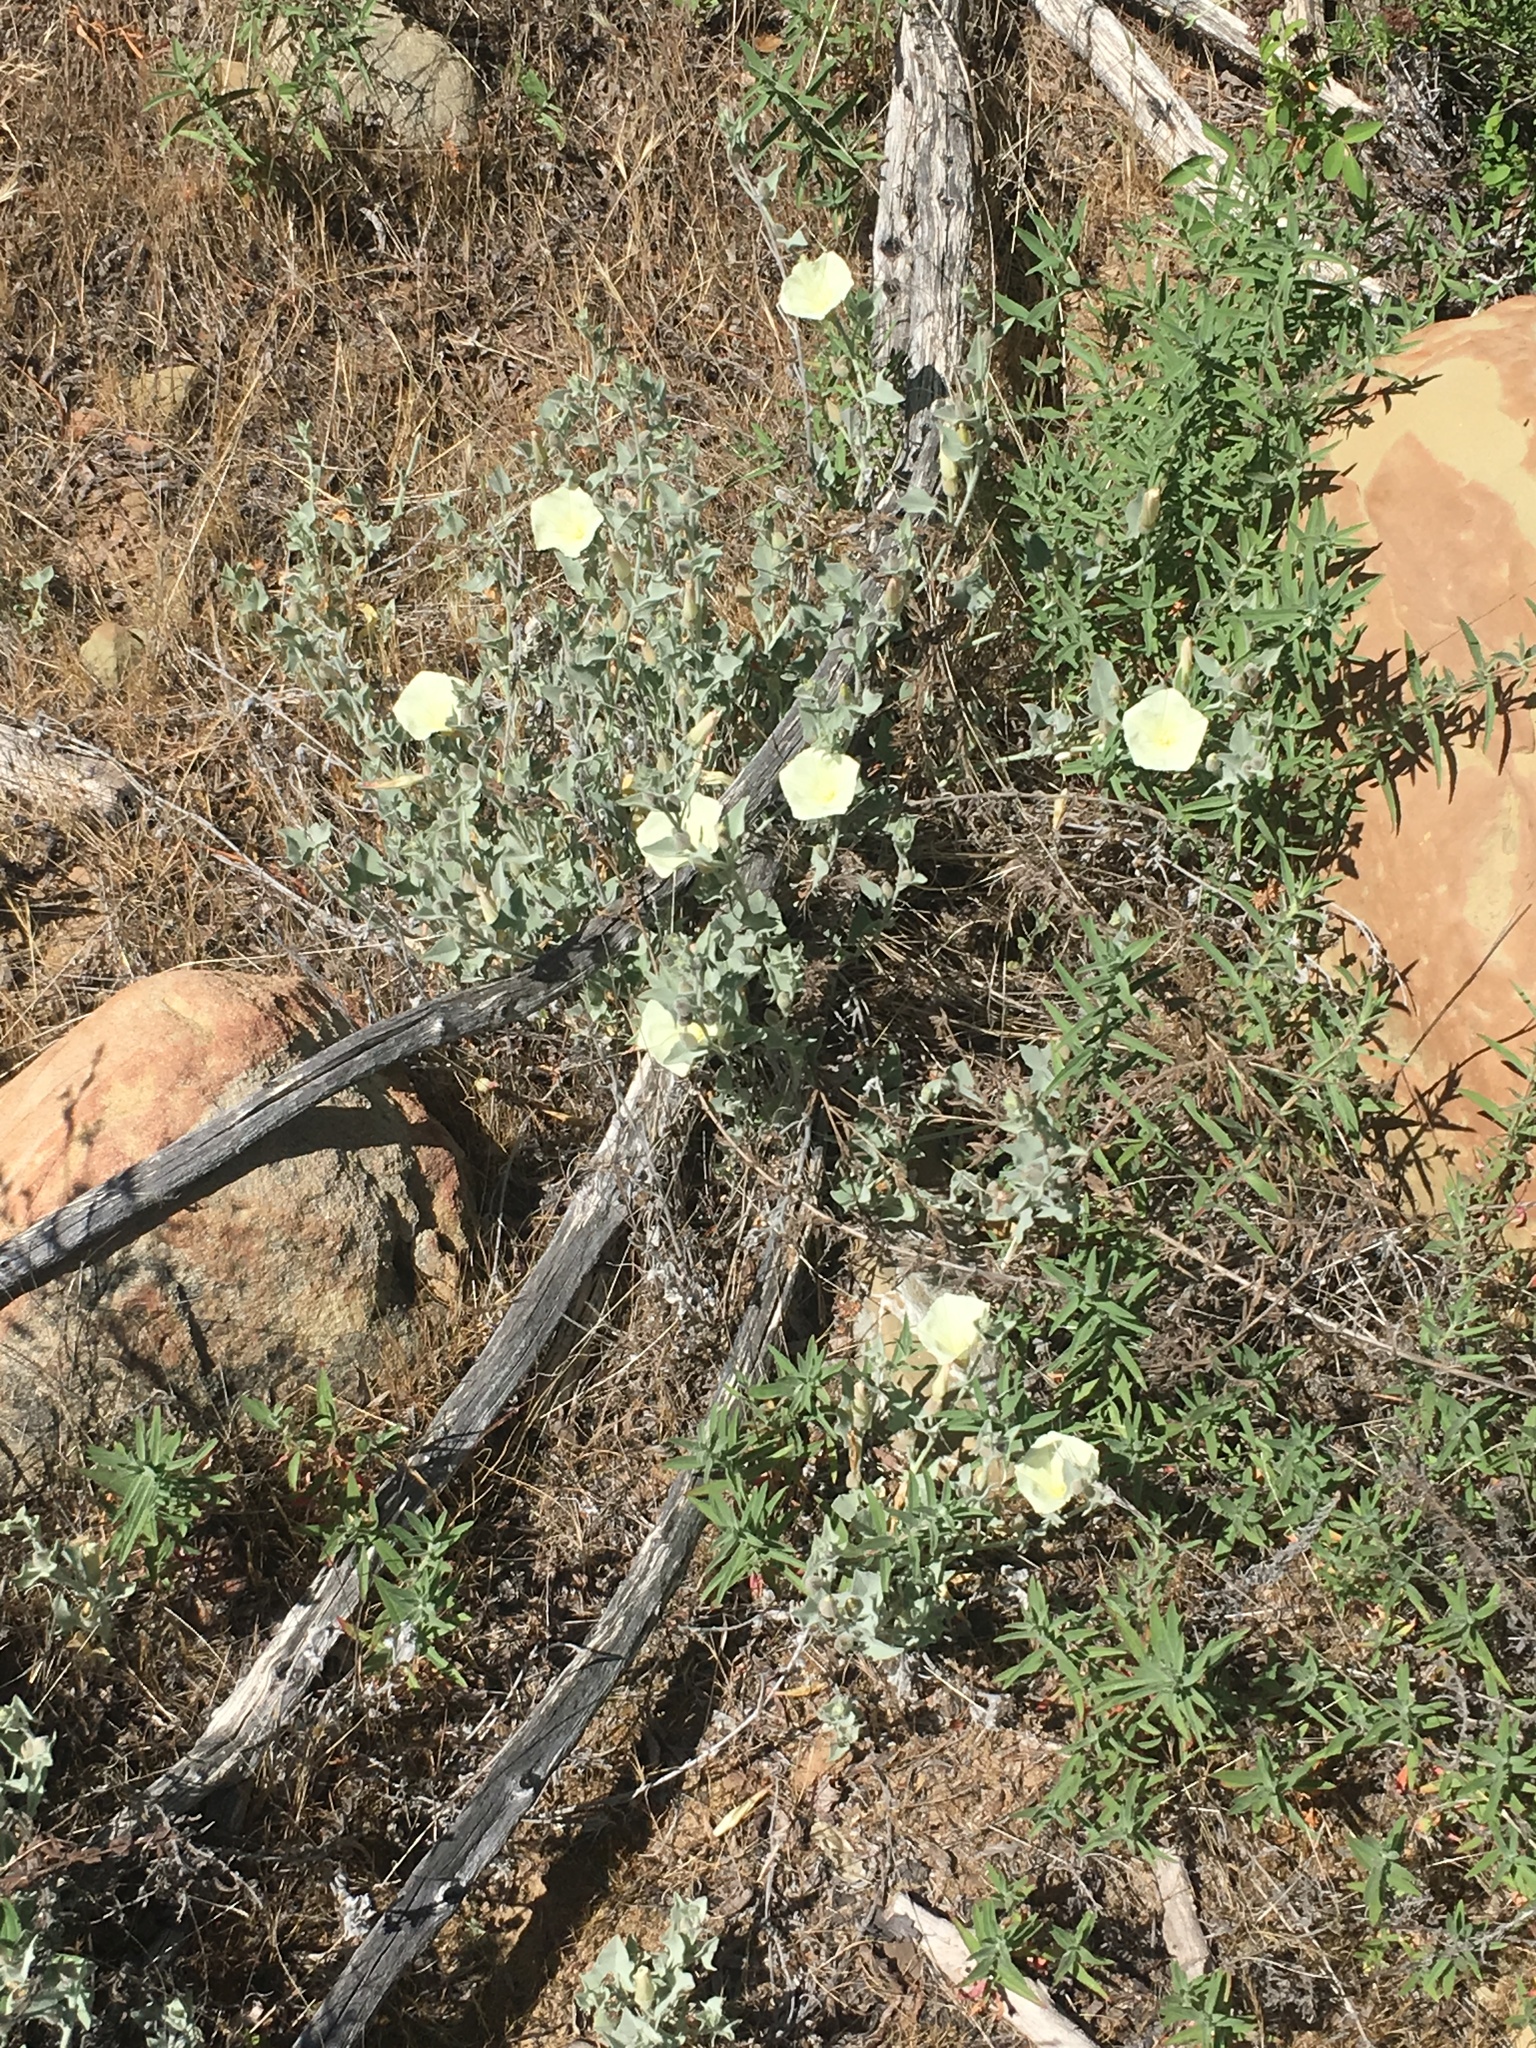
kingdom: Plantae
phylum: Tracheophyta
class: Magnoliopsida
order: Myrtales
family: Onagraceae
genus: Epilobium
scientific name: Epilobium canum
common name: California-fuchsia
